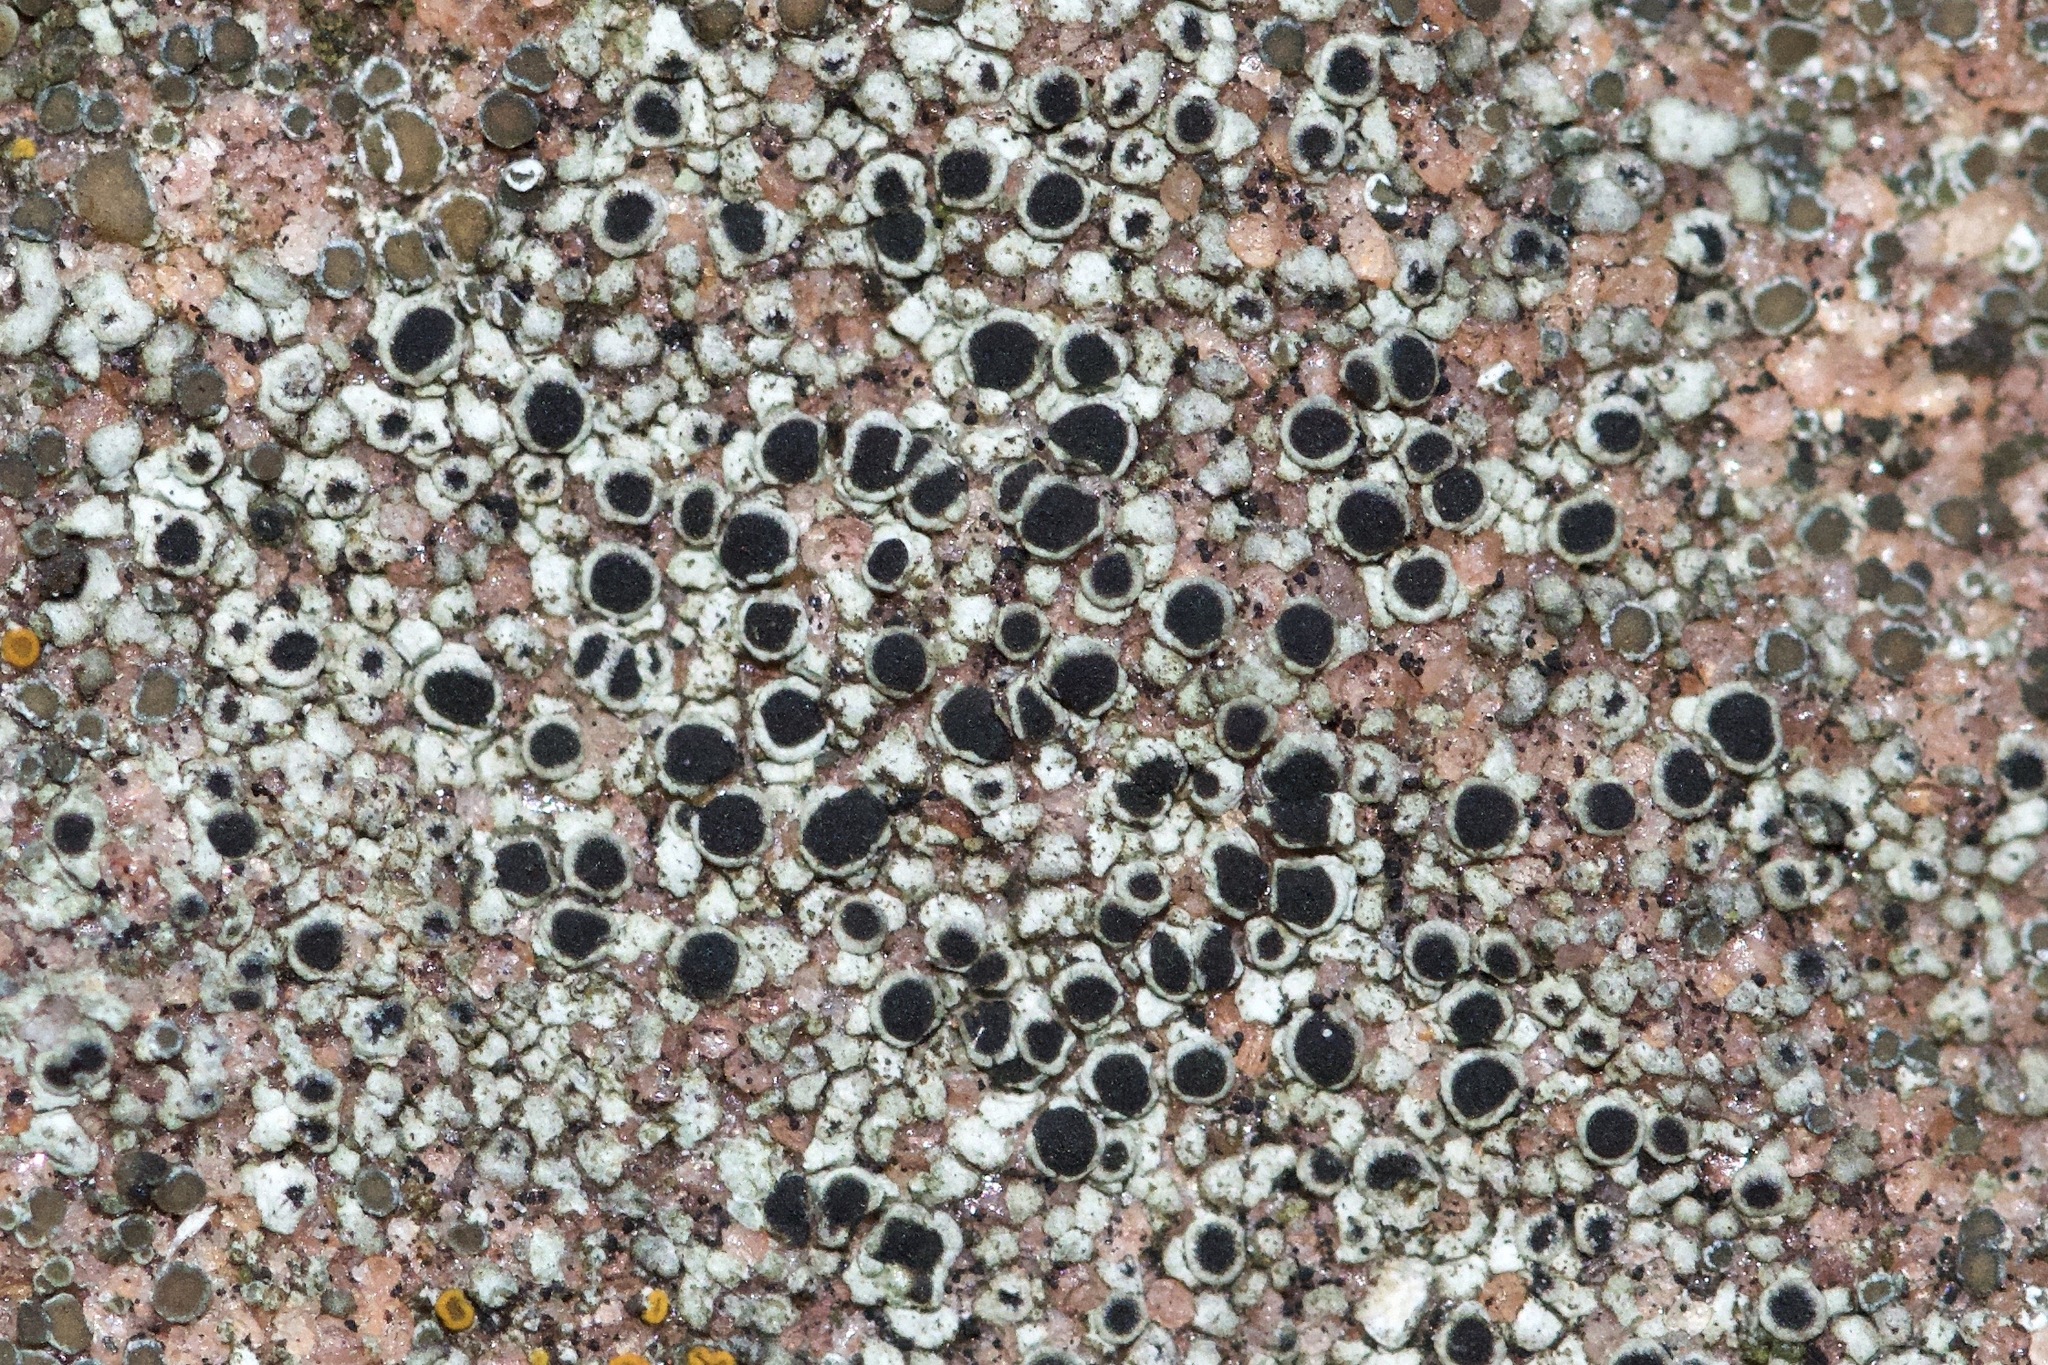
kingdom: Fungi
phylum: Ascomycota
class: Lecanoromycetes
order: Caliciales
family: Physciaceae
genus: Rinodina
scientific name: Rinodina moziana
